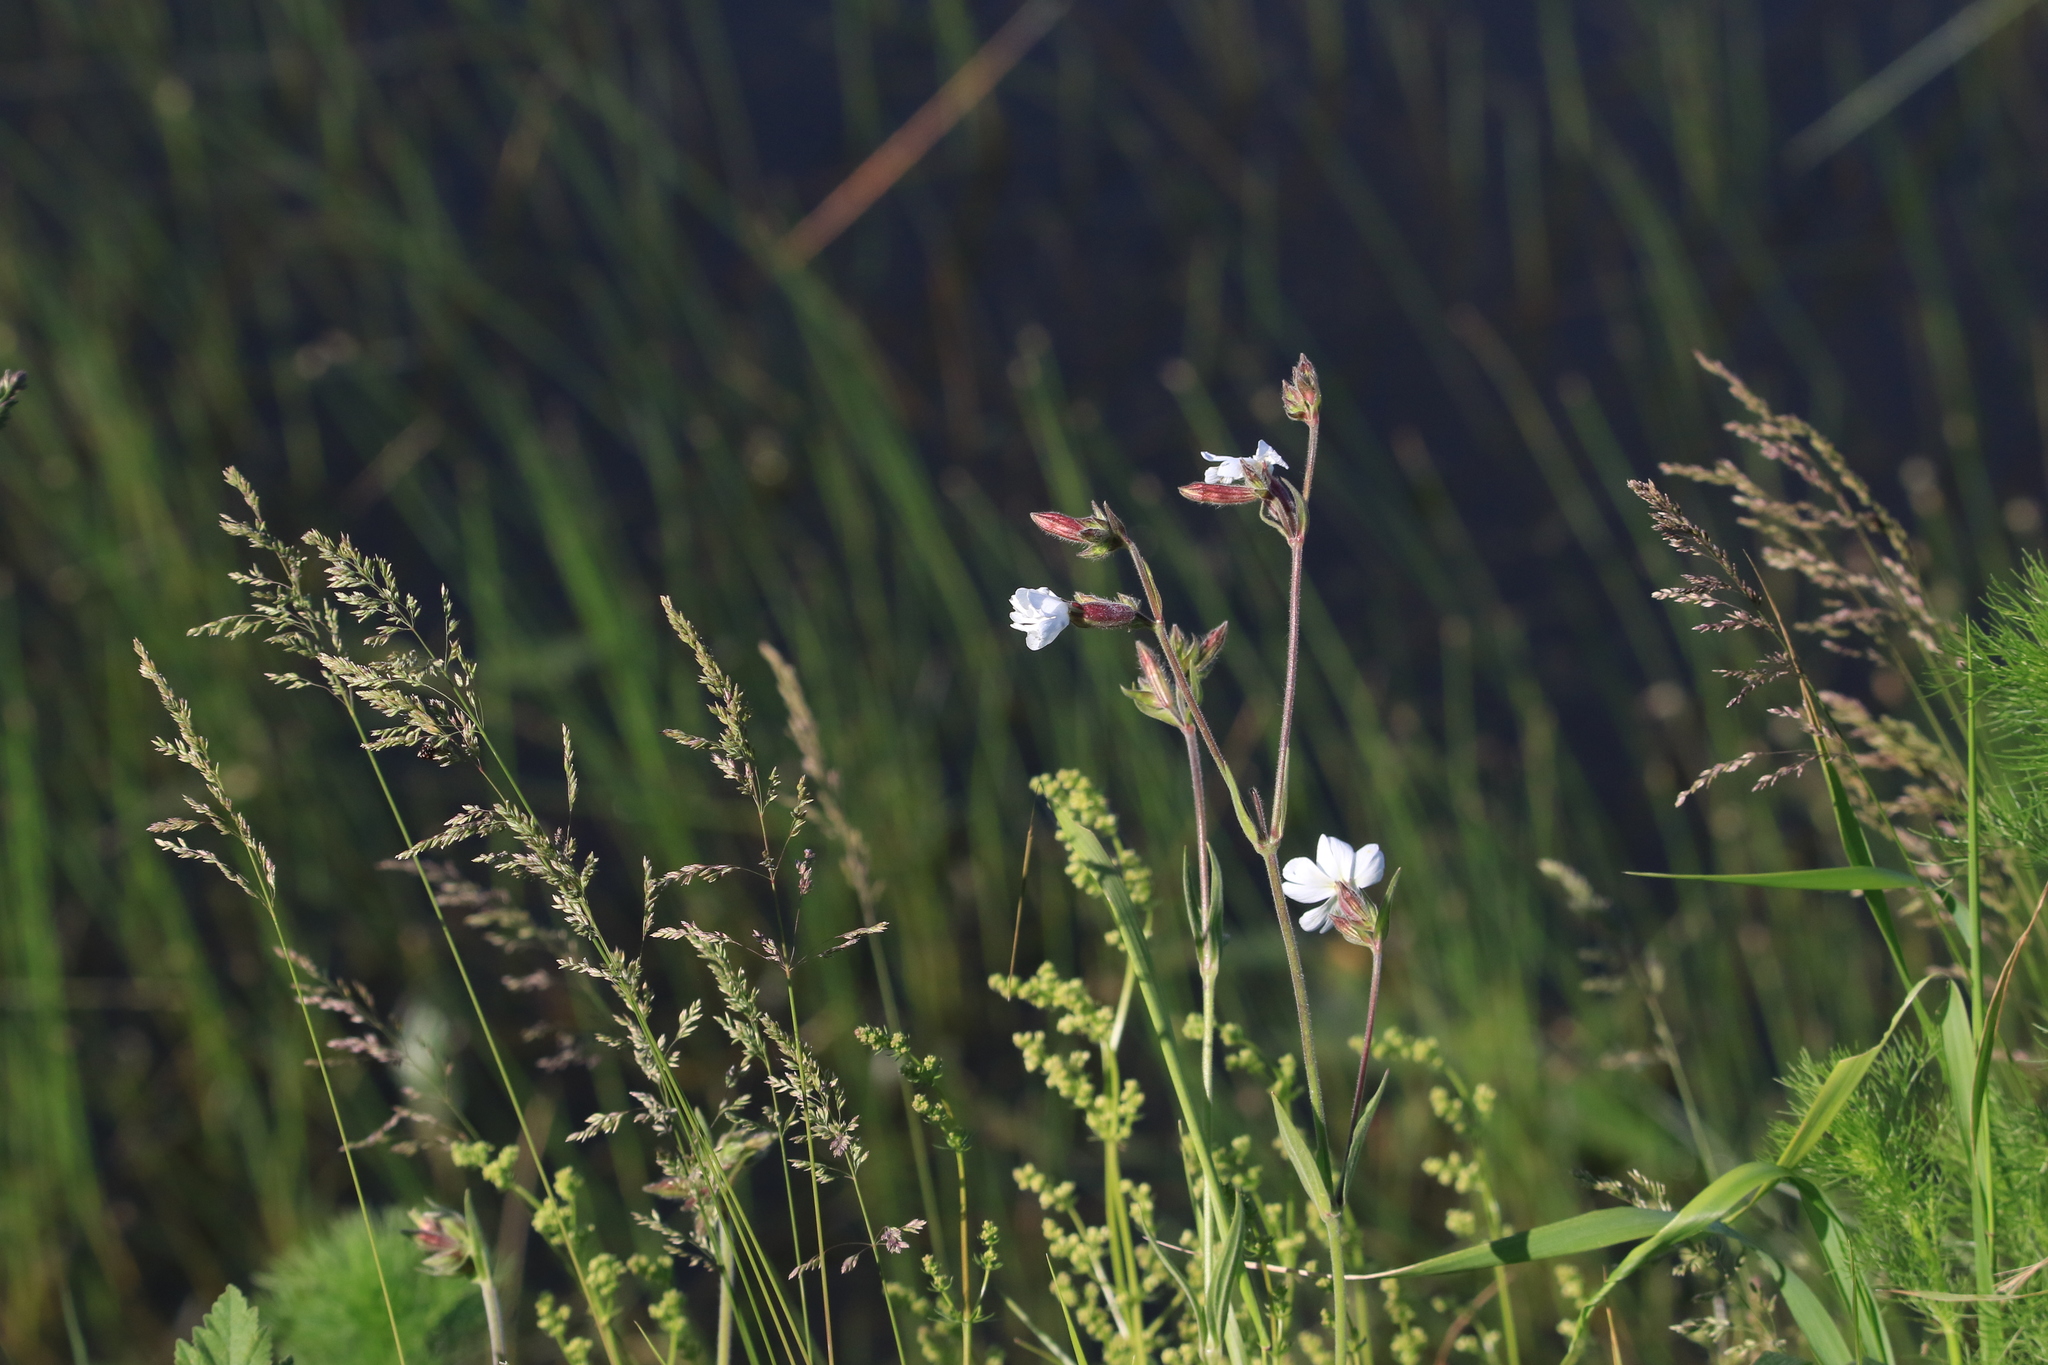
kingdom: Plantae
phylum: Tracheophyta
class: Magnoliopsida
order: Caryophyllales
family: Caryophyllaceae
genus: Silene
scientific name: Silene latifolia
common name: White campion
